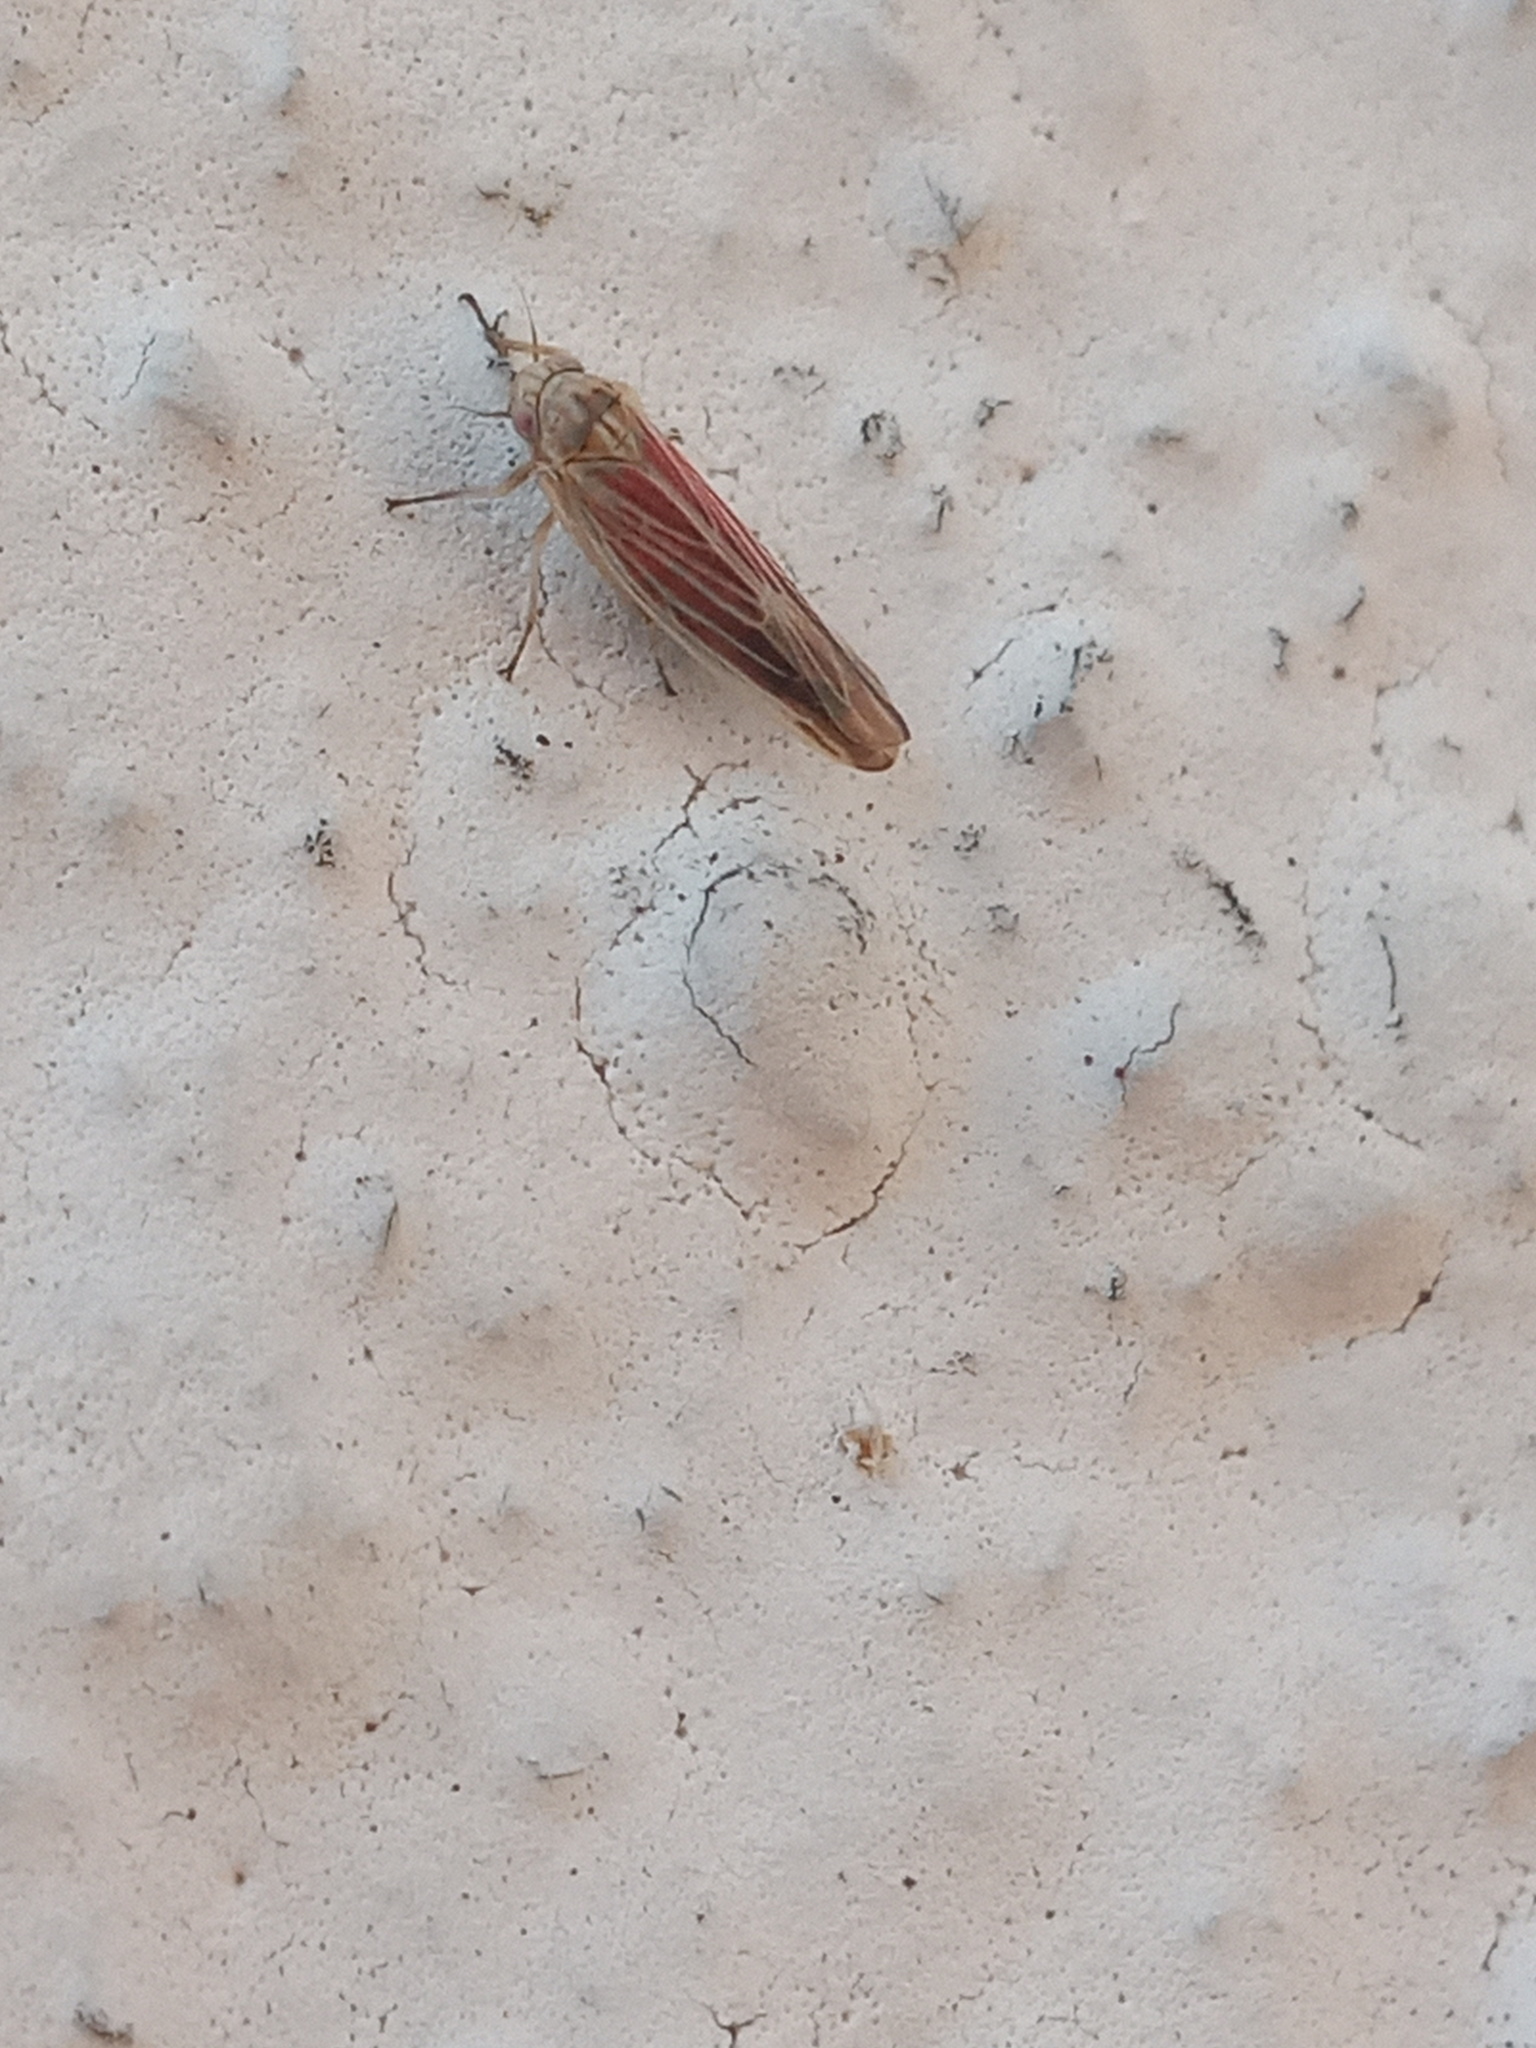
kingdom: Animalia
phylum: Arthropoda
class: Insecta
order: Hemiptera
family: Cicadellidae
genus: Balclutha
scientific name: Balclutha rubrostriata
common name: Red-streaked leafhopper
